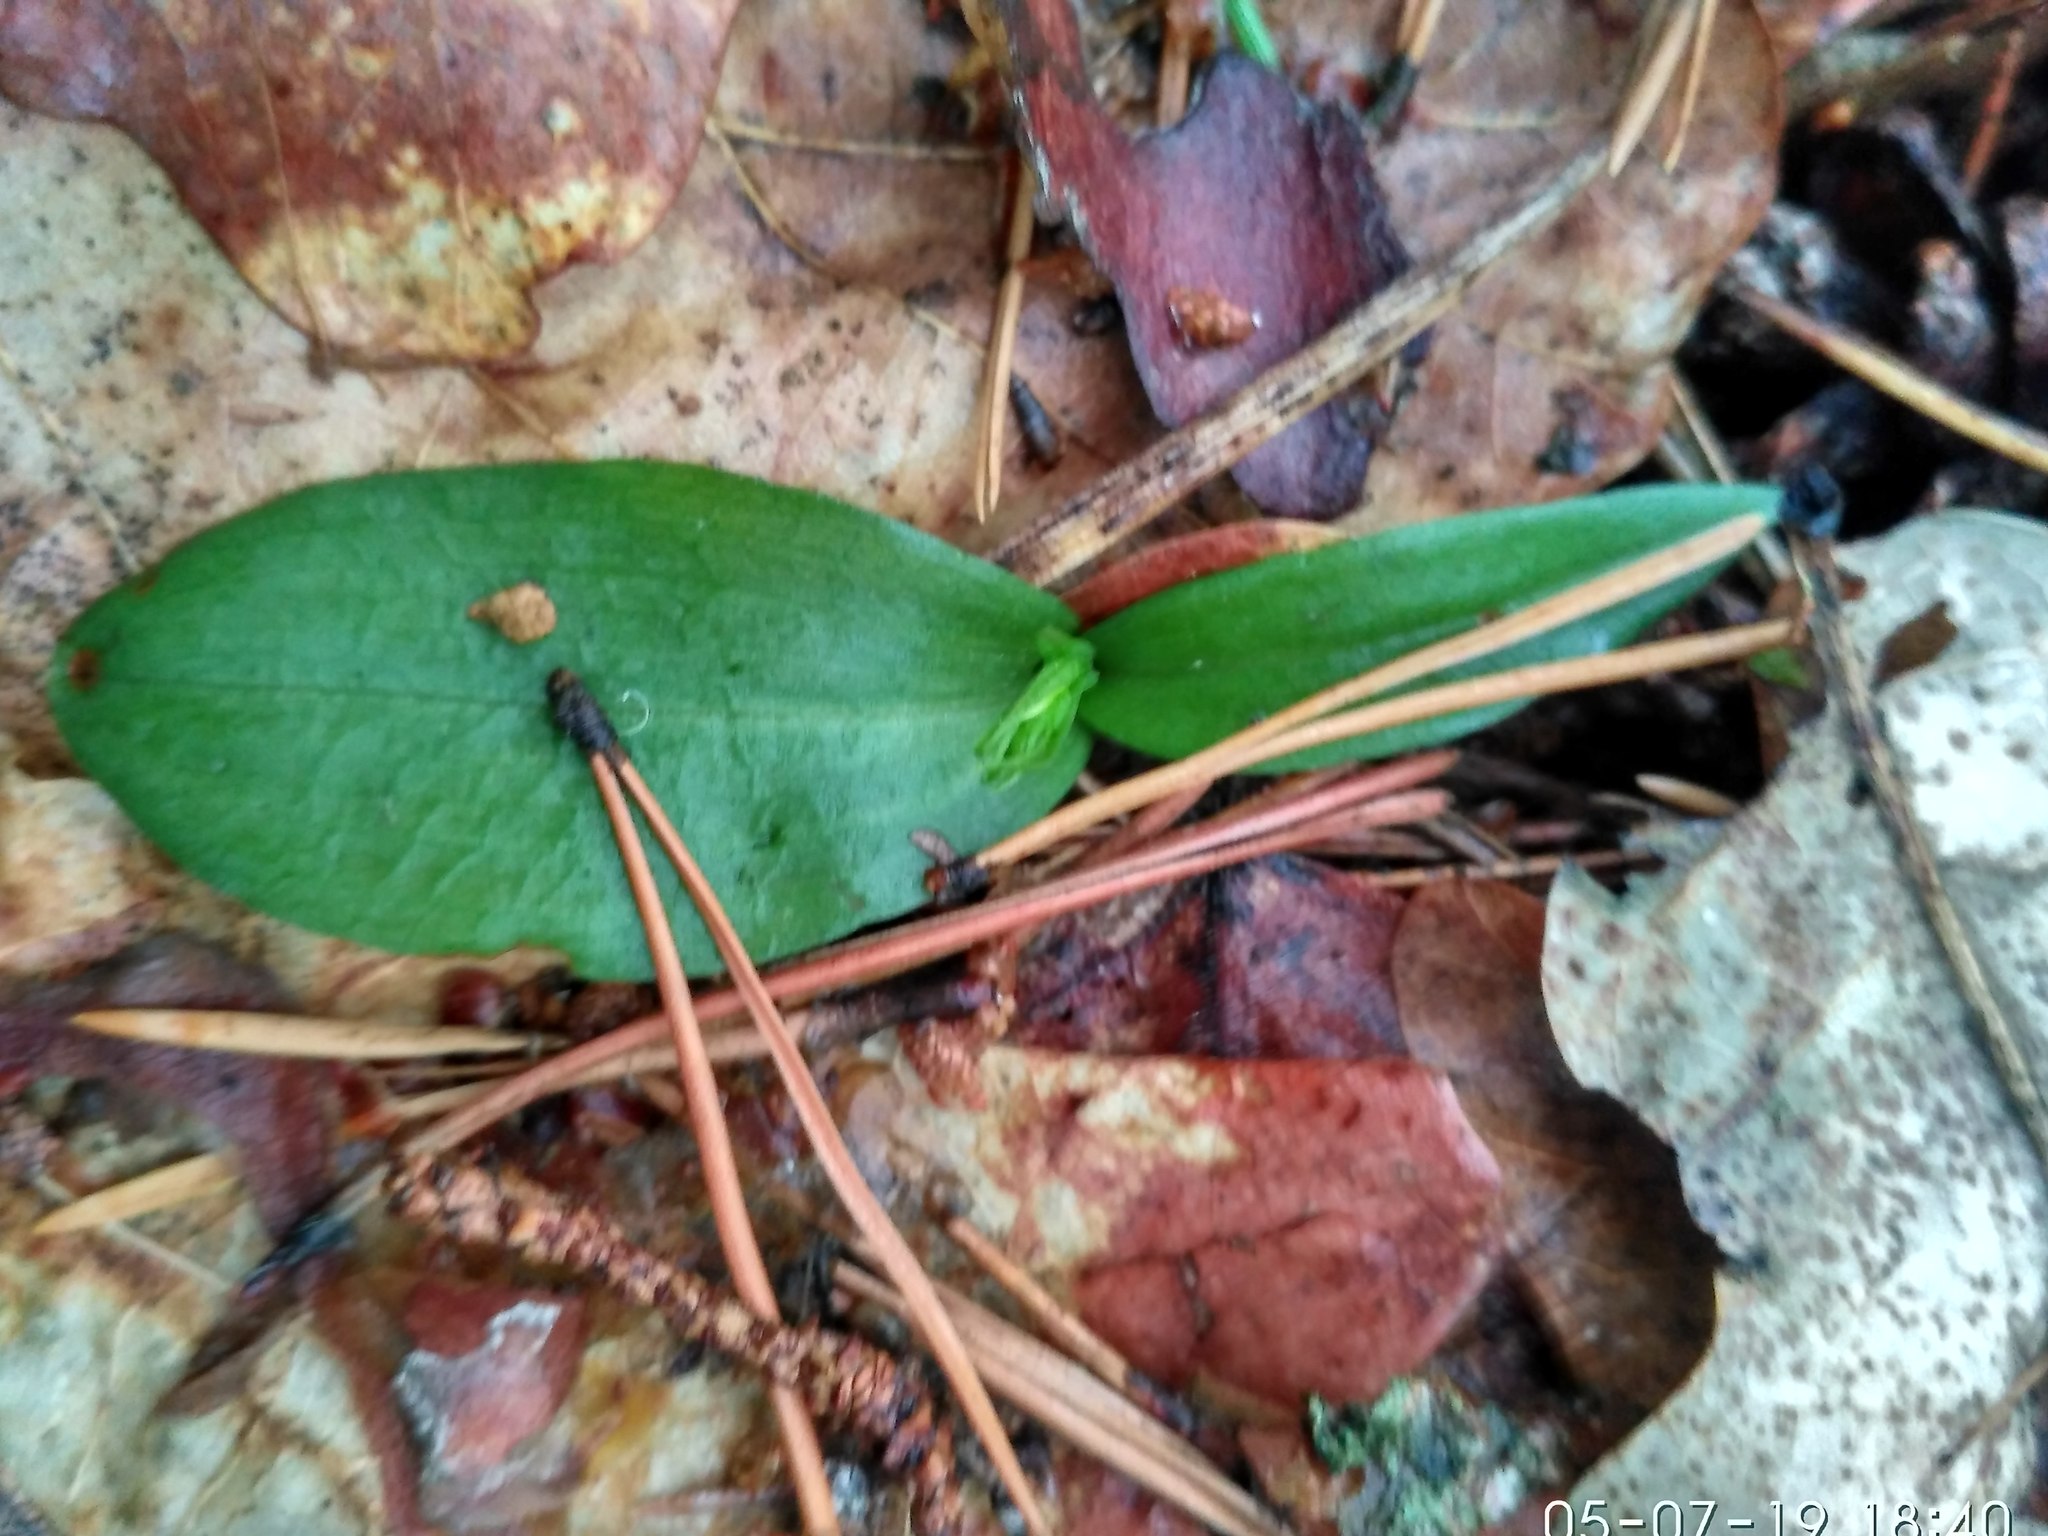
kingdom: Plantae
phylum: Tracheophyta
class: Liliopsida
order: Asparagales
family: Orchidaceae
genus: Hemipilia
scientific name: Hemipilia cucullata
